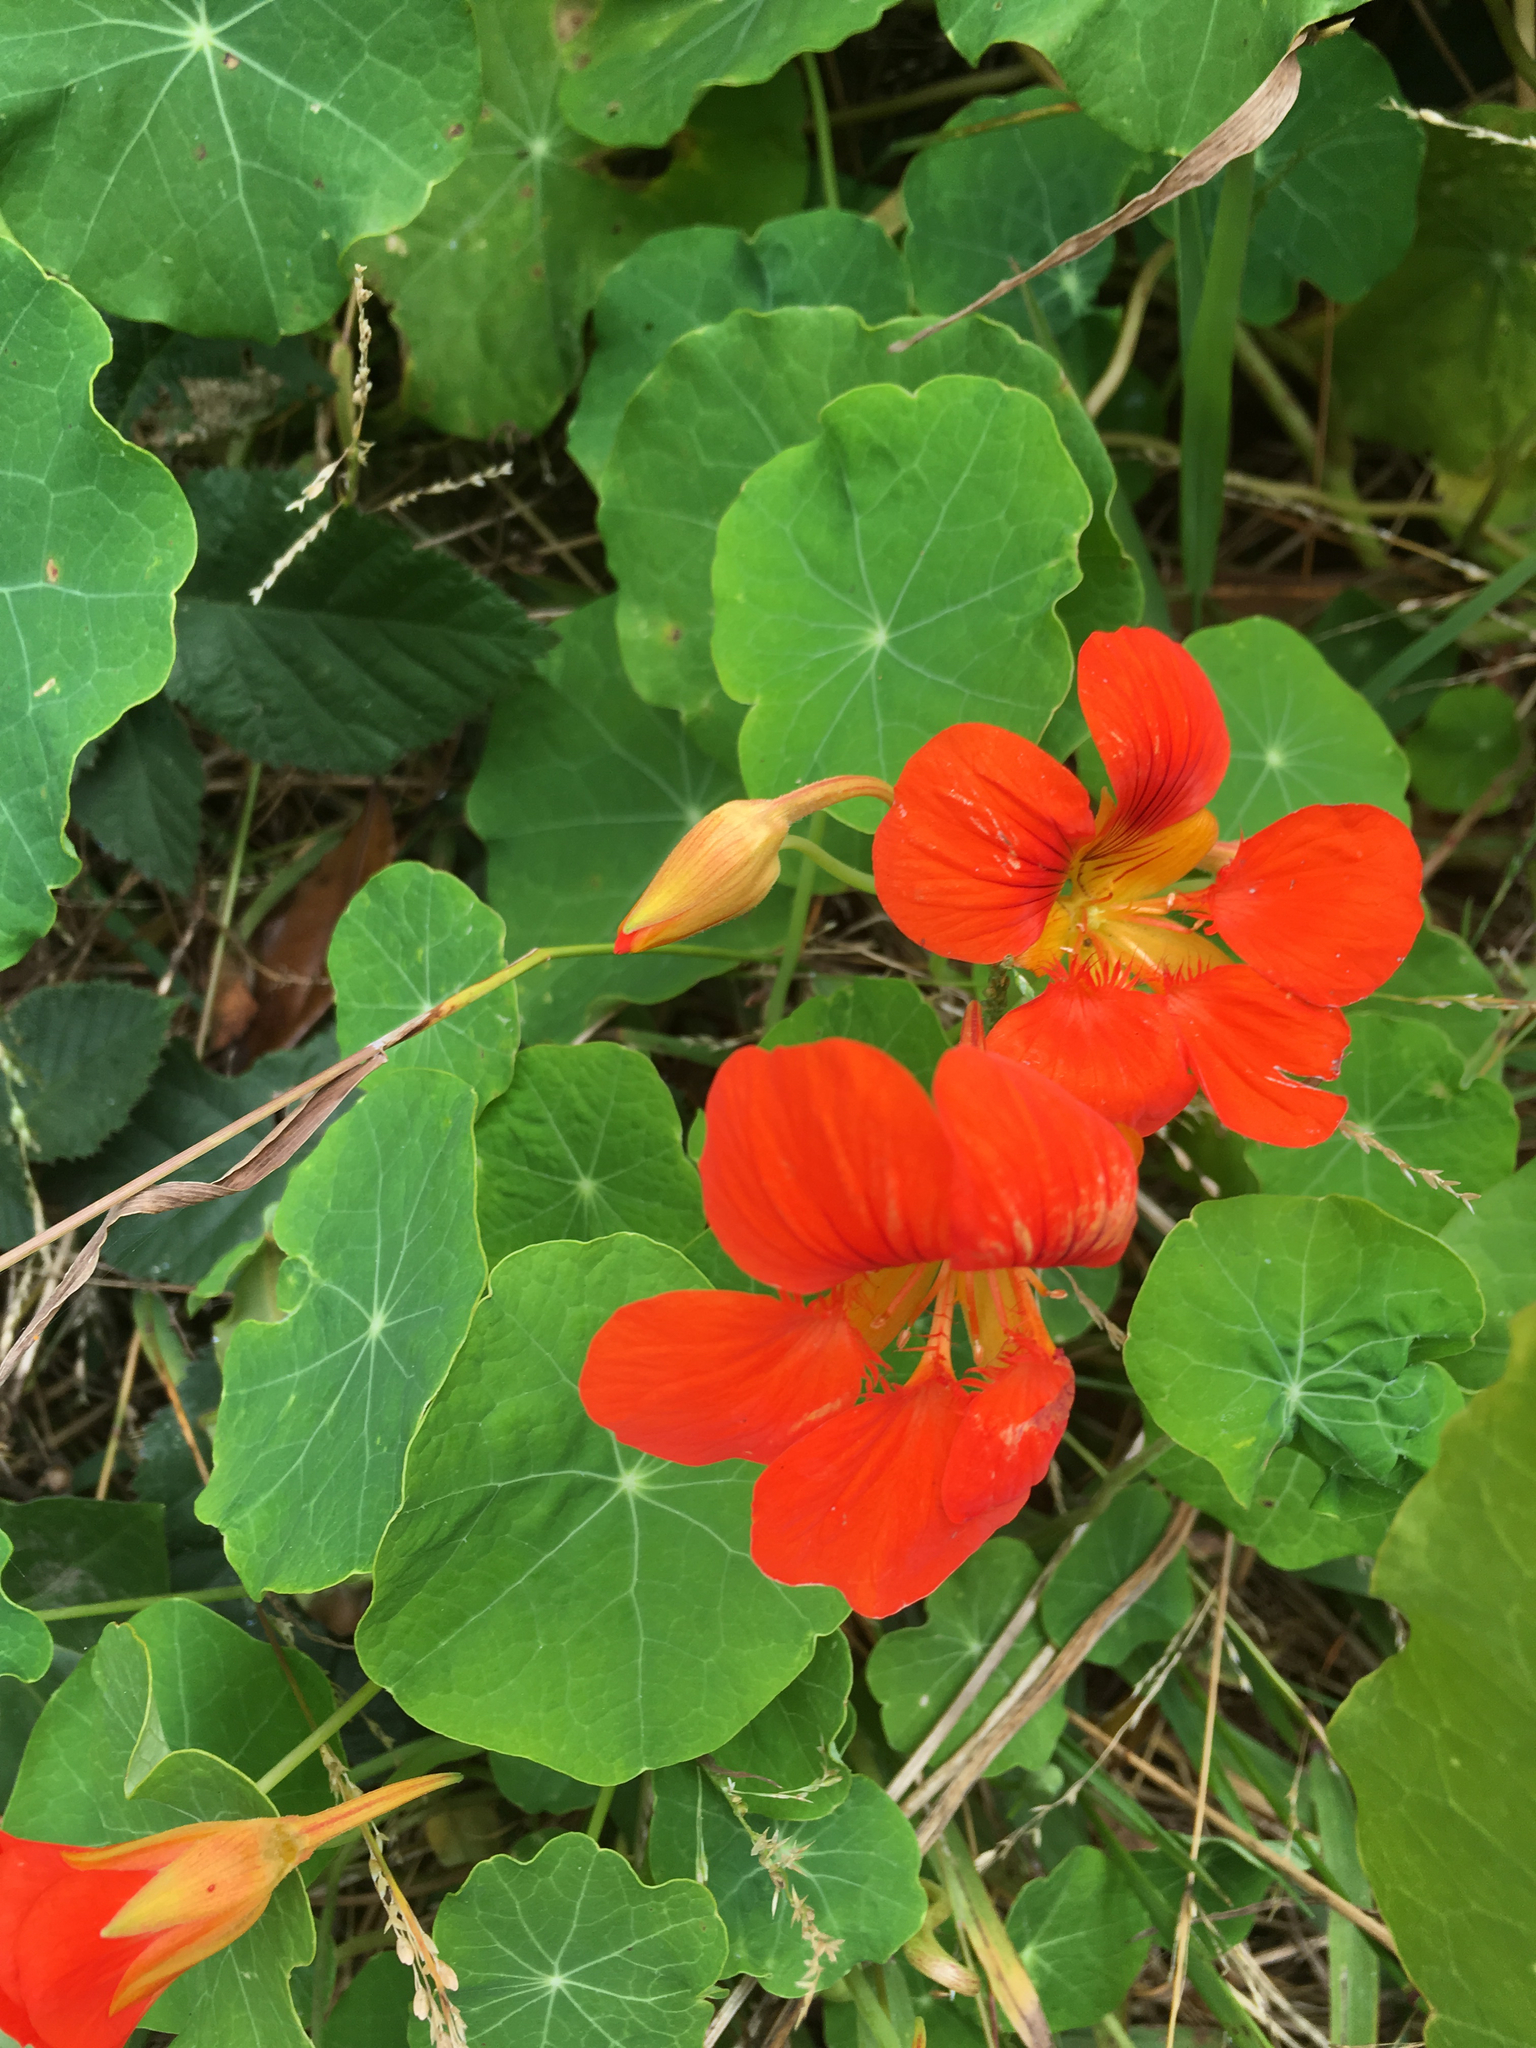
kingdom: Plantae
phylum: Tracheophyta
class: Magnoliopsida
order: Brassicales
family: Tropaeolaceae
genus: Tropaeolum
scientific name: Tropaeolum majus
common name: Nasturtium
